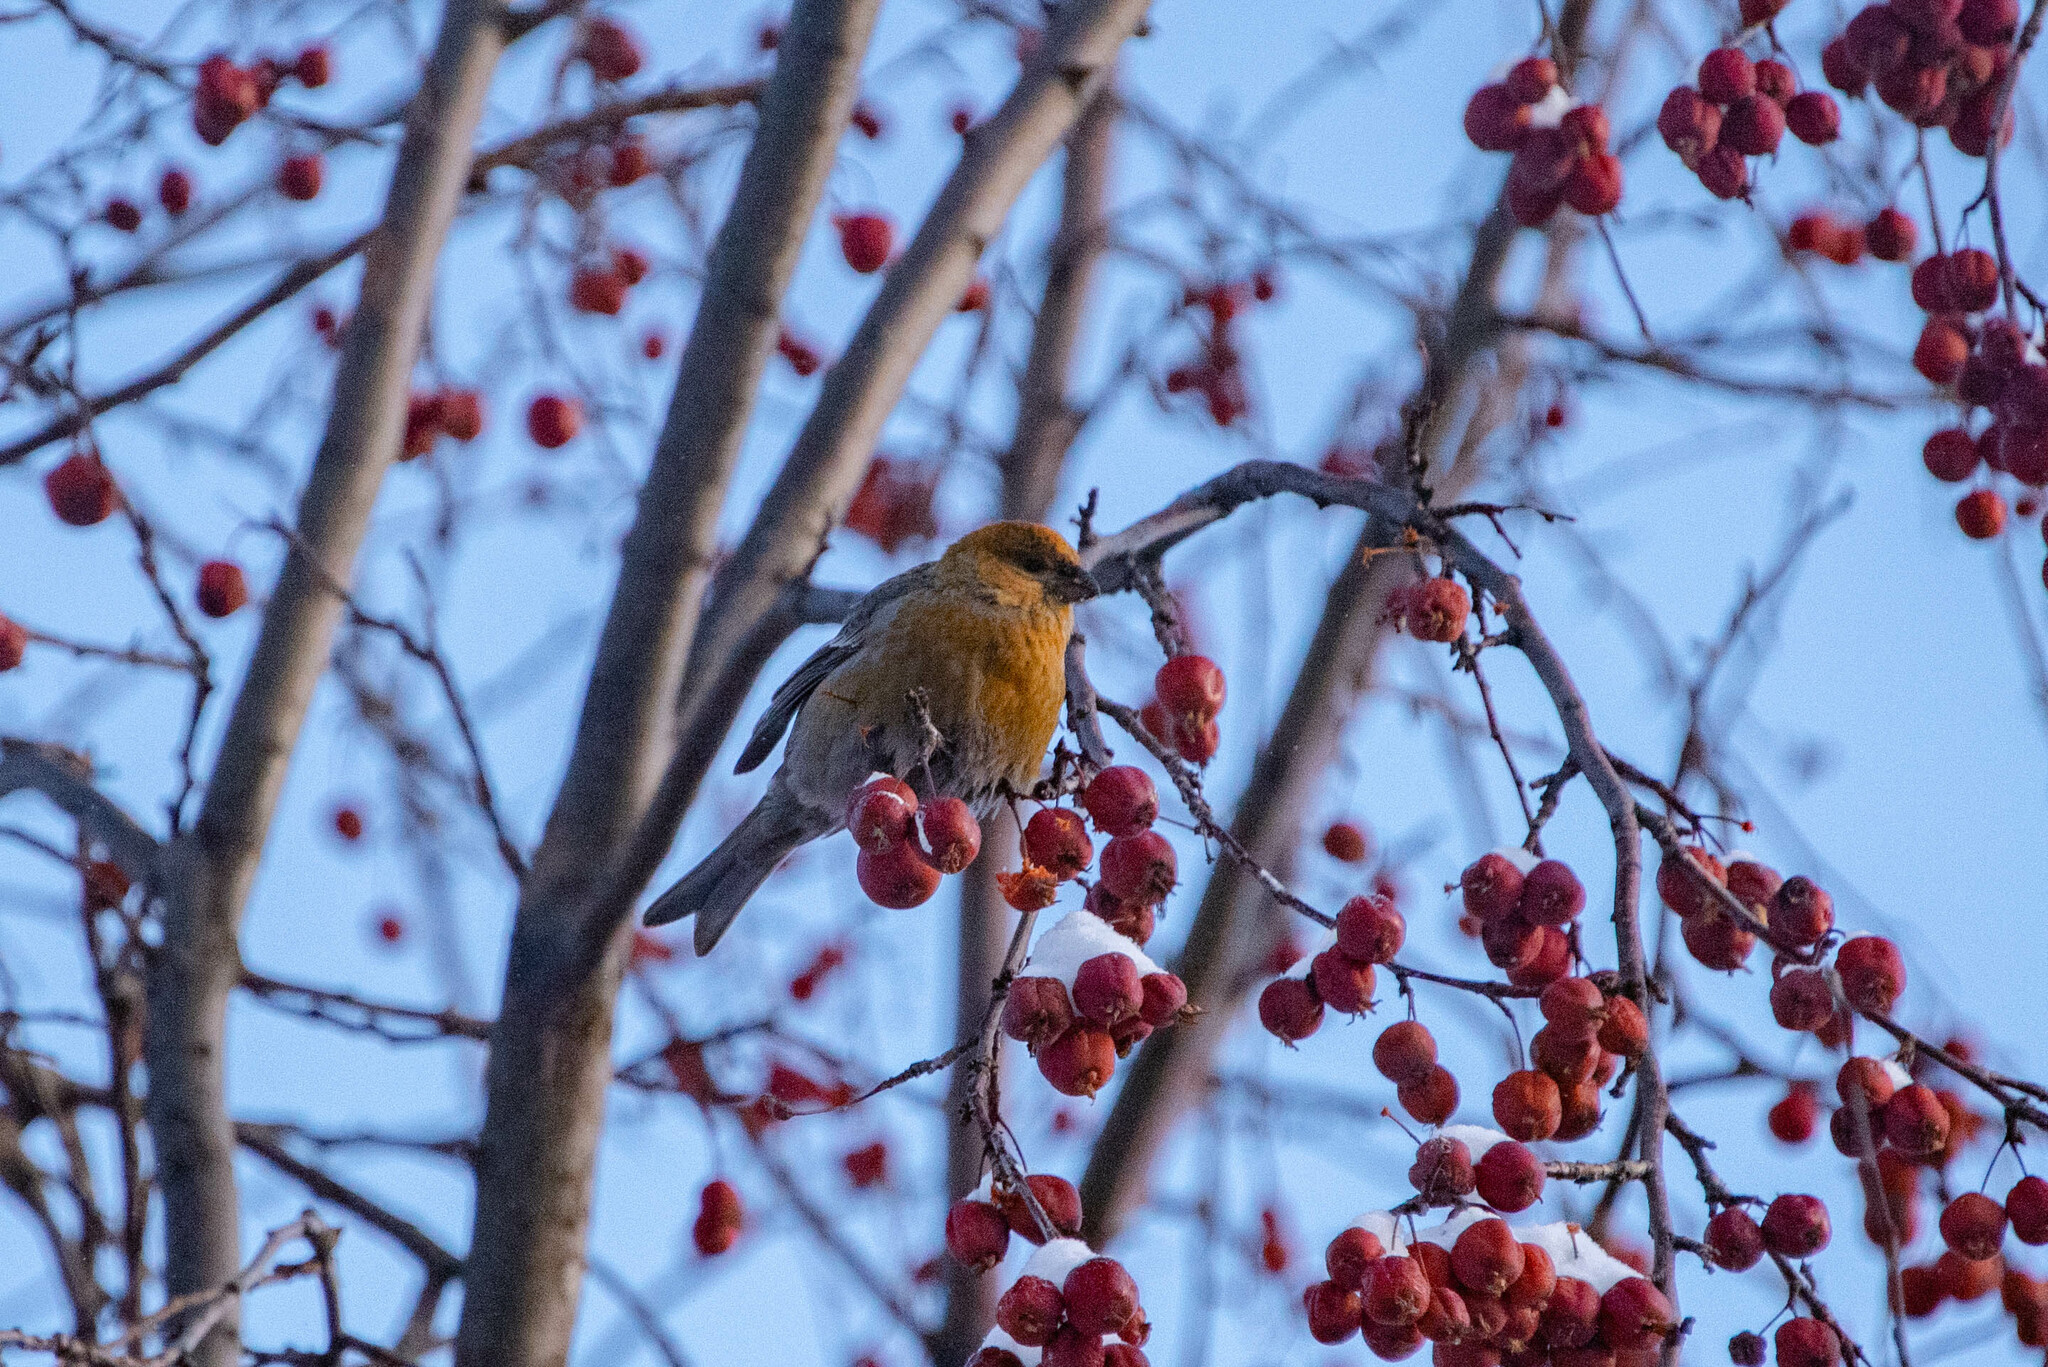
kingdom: Animalia
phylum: Chordata
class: Aves
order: Passeriformes
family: Fringillidae
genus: Pinicola
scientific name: Pinicola enucleator
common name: Pine grosbeak
